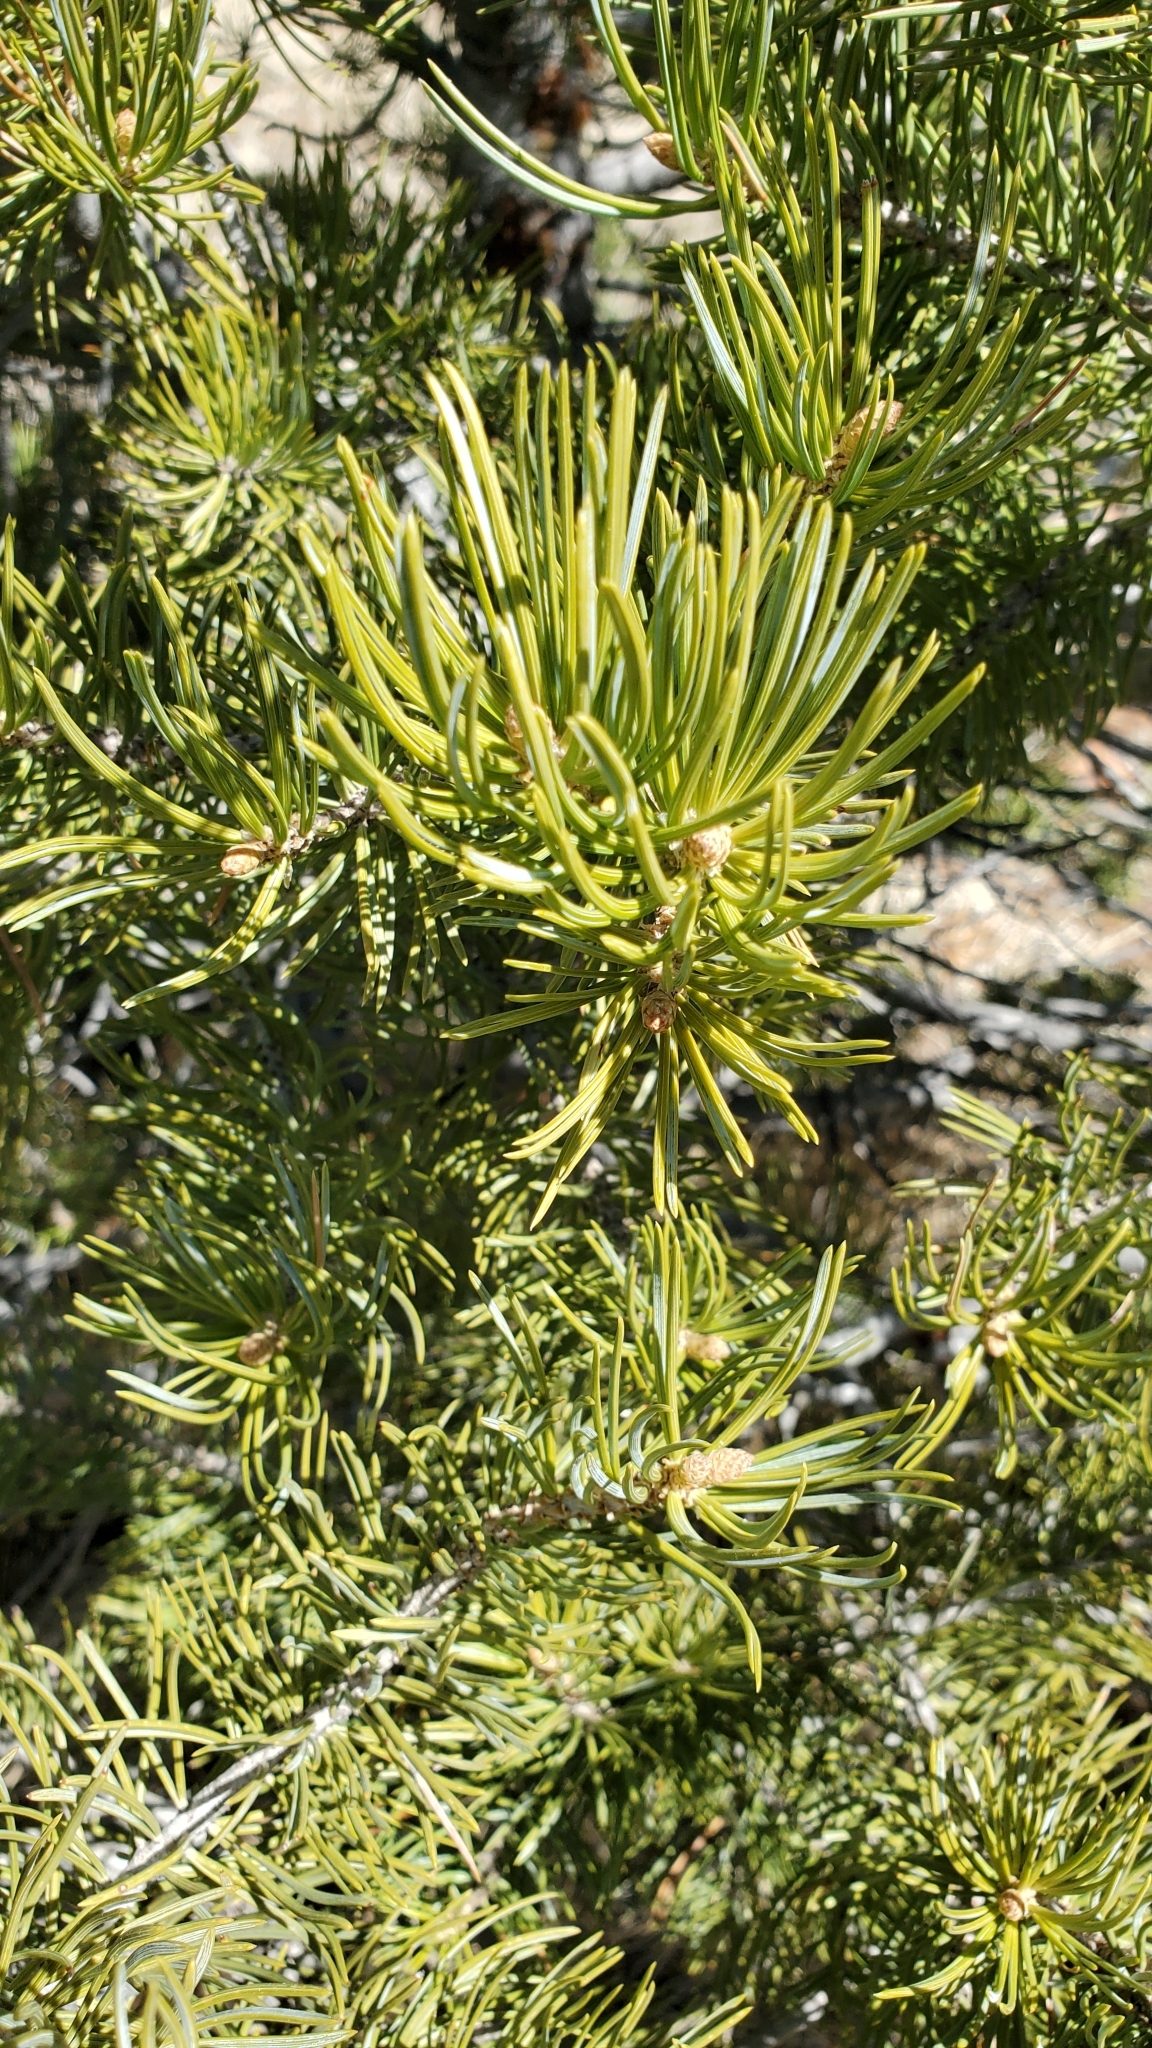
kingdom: Plantae
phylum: Tracheophyta
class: Pinopsida
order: Pinales
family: Pinaceae
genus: Pinus
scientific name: Pinus edulis
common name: Colorado pinyon
